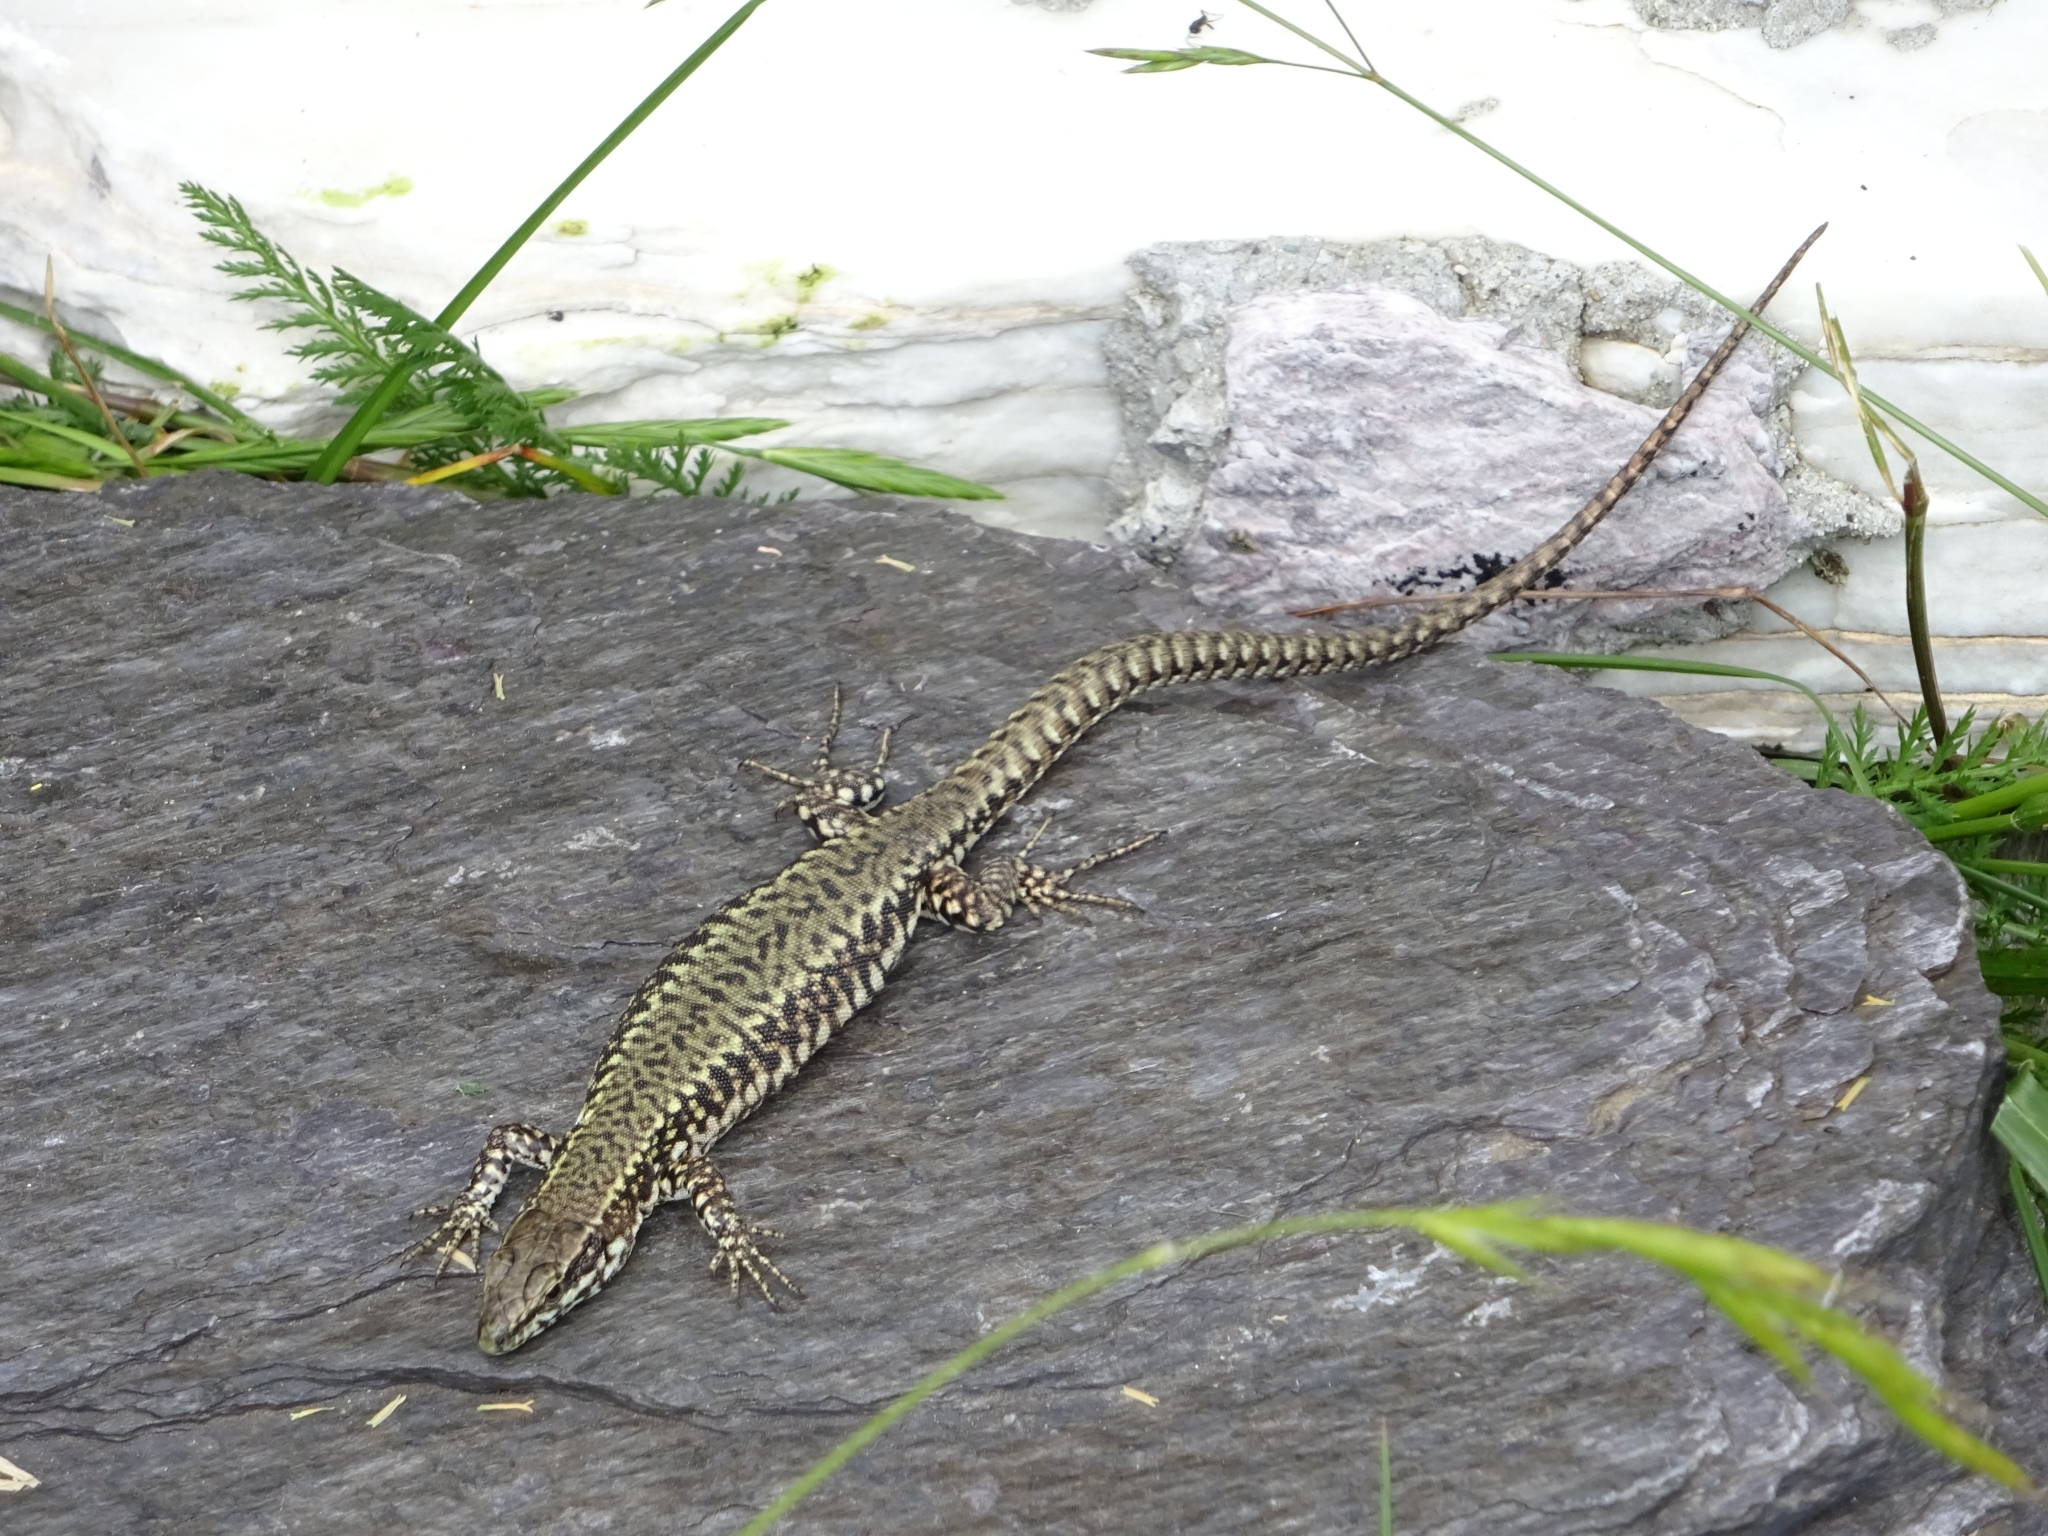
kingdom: Animalia
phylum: Chordata
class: Squamata
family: Lacertidae
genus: Podarcis
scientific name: Podarcis muralis
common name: Common wall lizard
